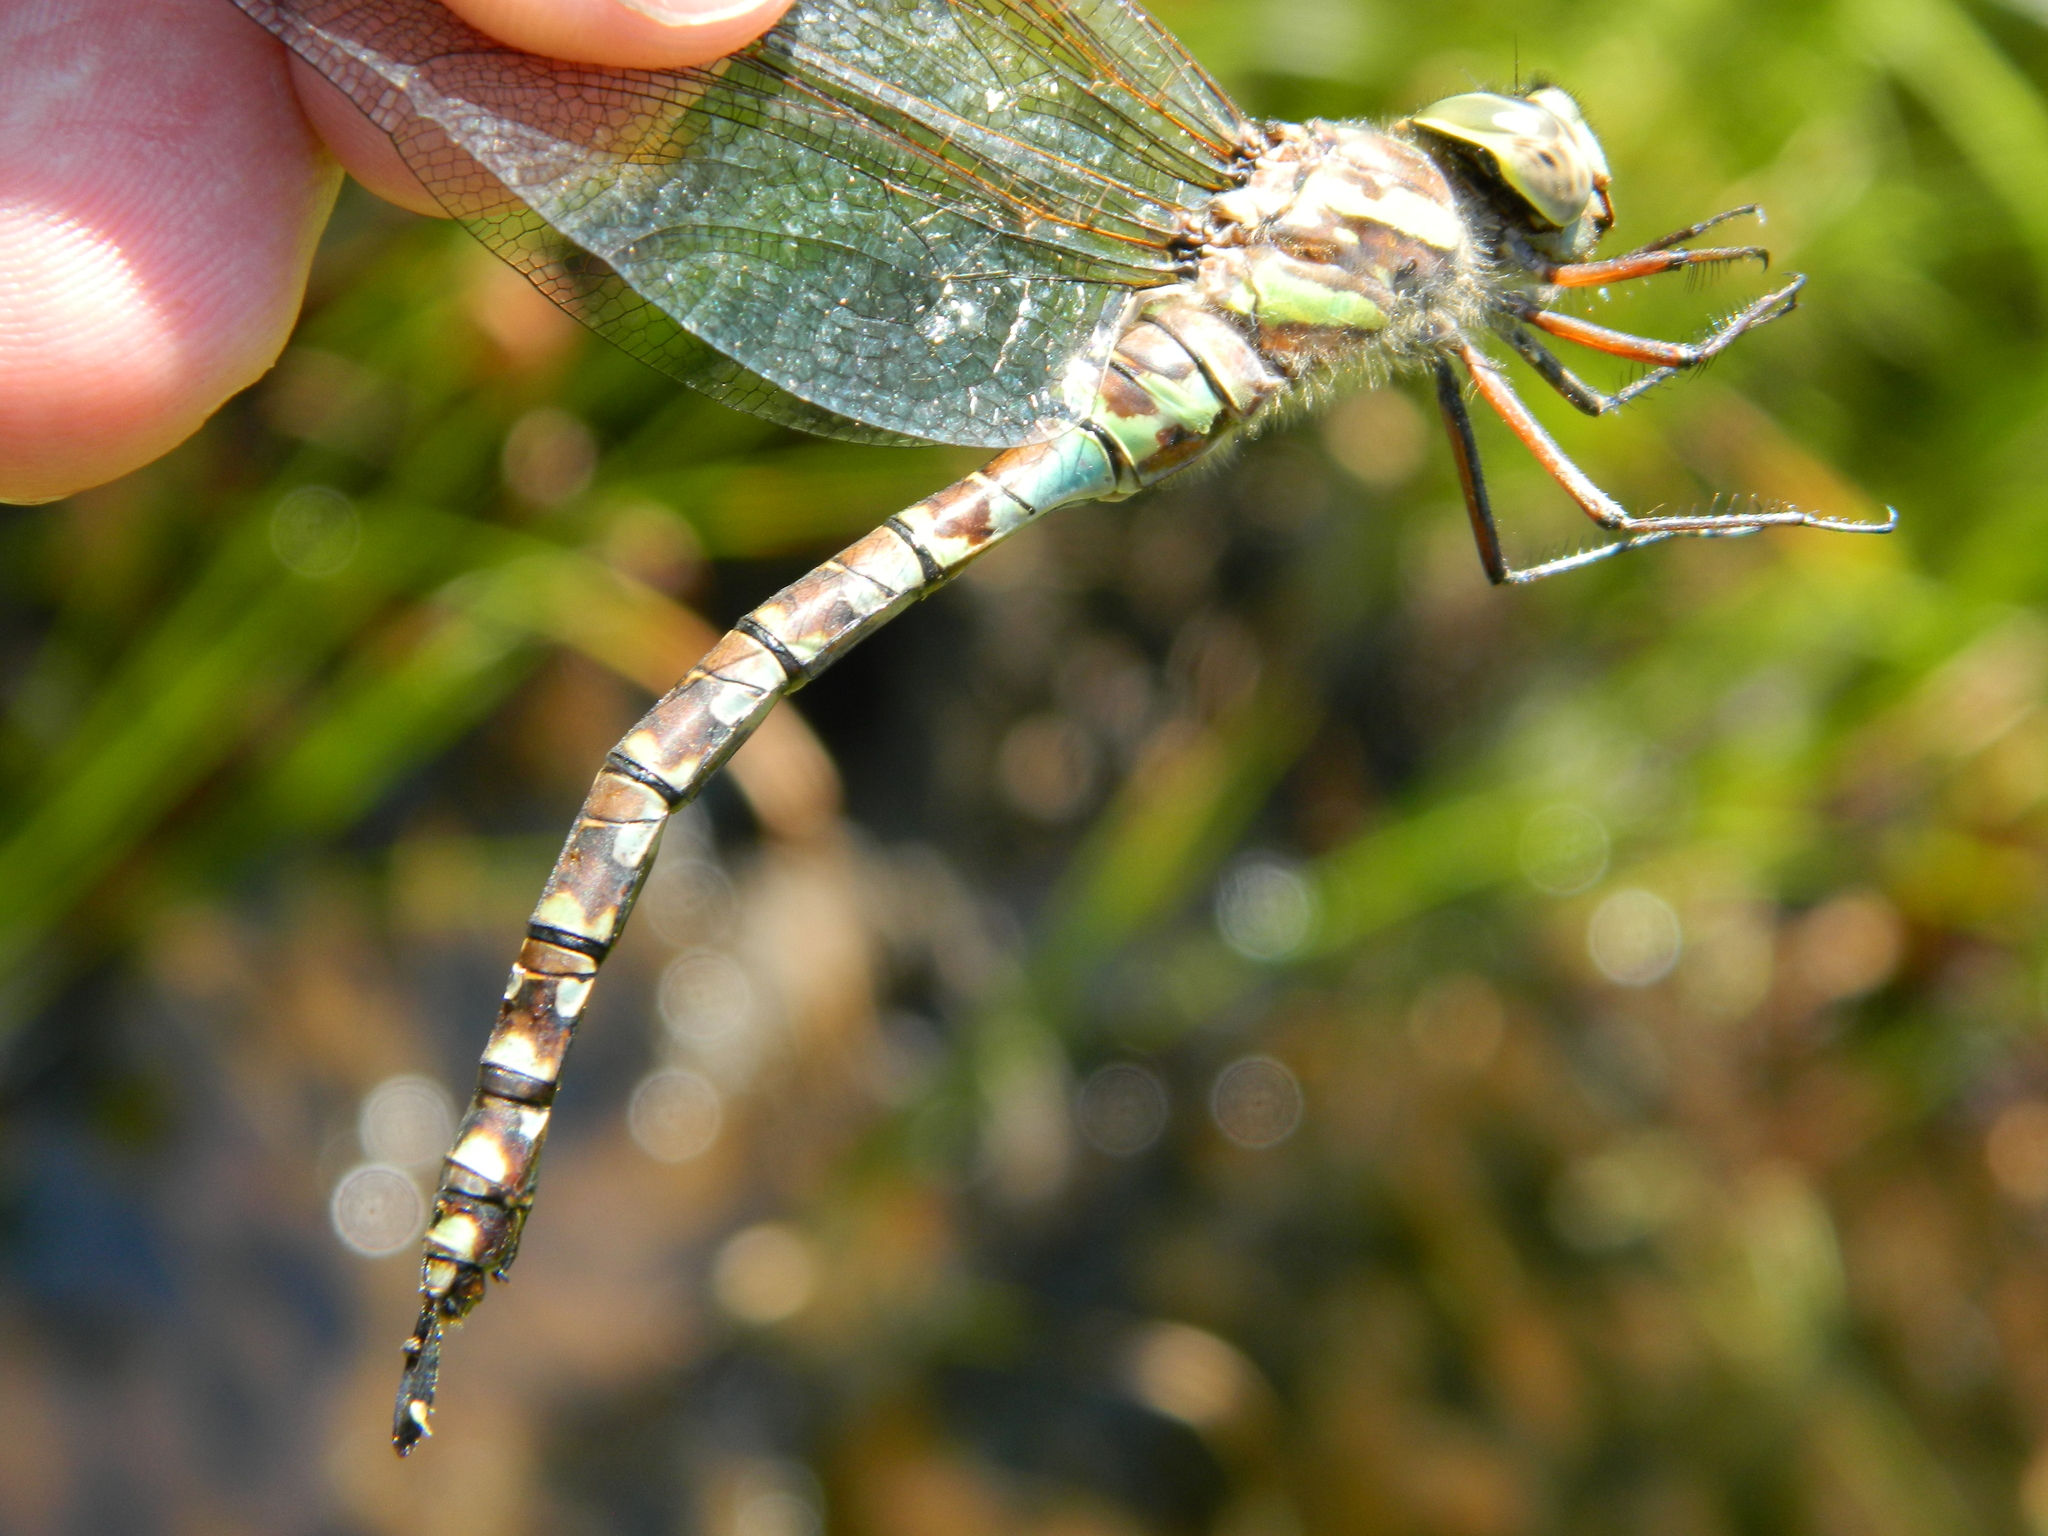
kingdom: Animalia
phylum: Arthropoda
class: Insecta
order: Odonata
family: Aeshnidae
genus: Aeshna
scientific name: Aeshna canadensis
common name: Canada darner
